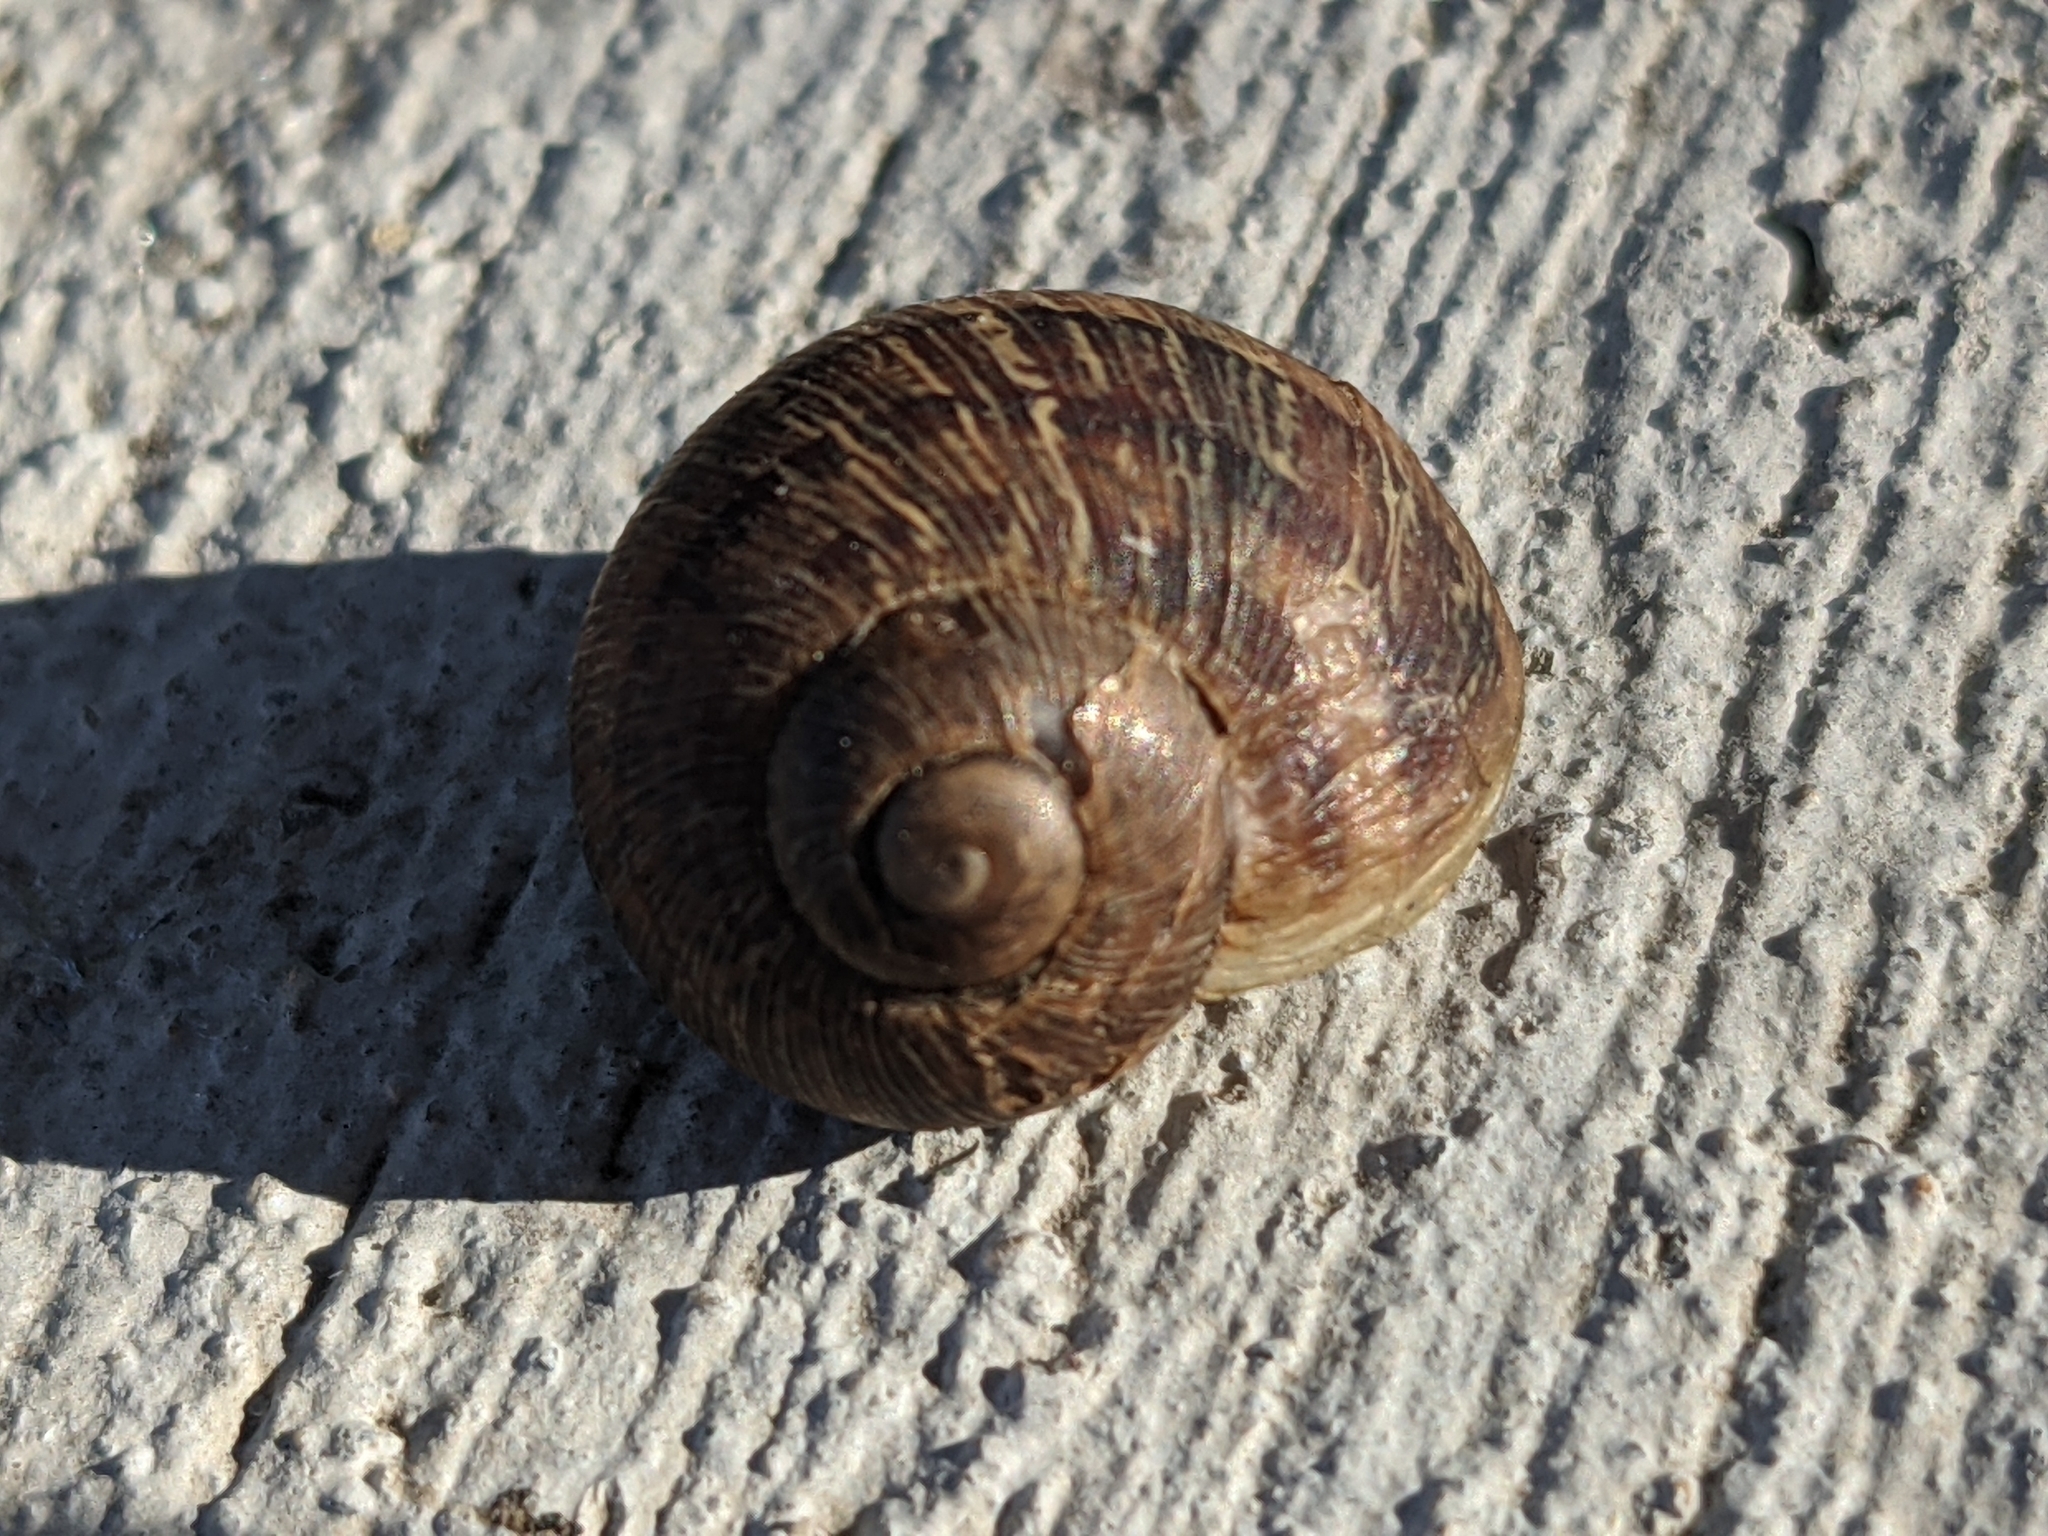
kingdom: Animalia
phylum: Mollusca
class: Gastropoda
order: Stylommatophora
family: Helicidae
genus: Cornu
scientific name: Cornu aspersum
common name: Brown garden snail
